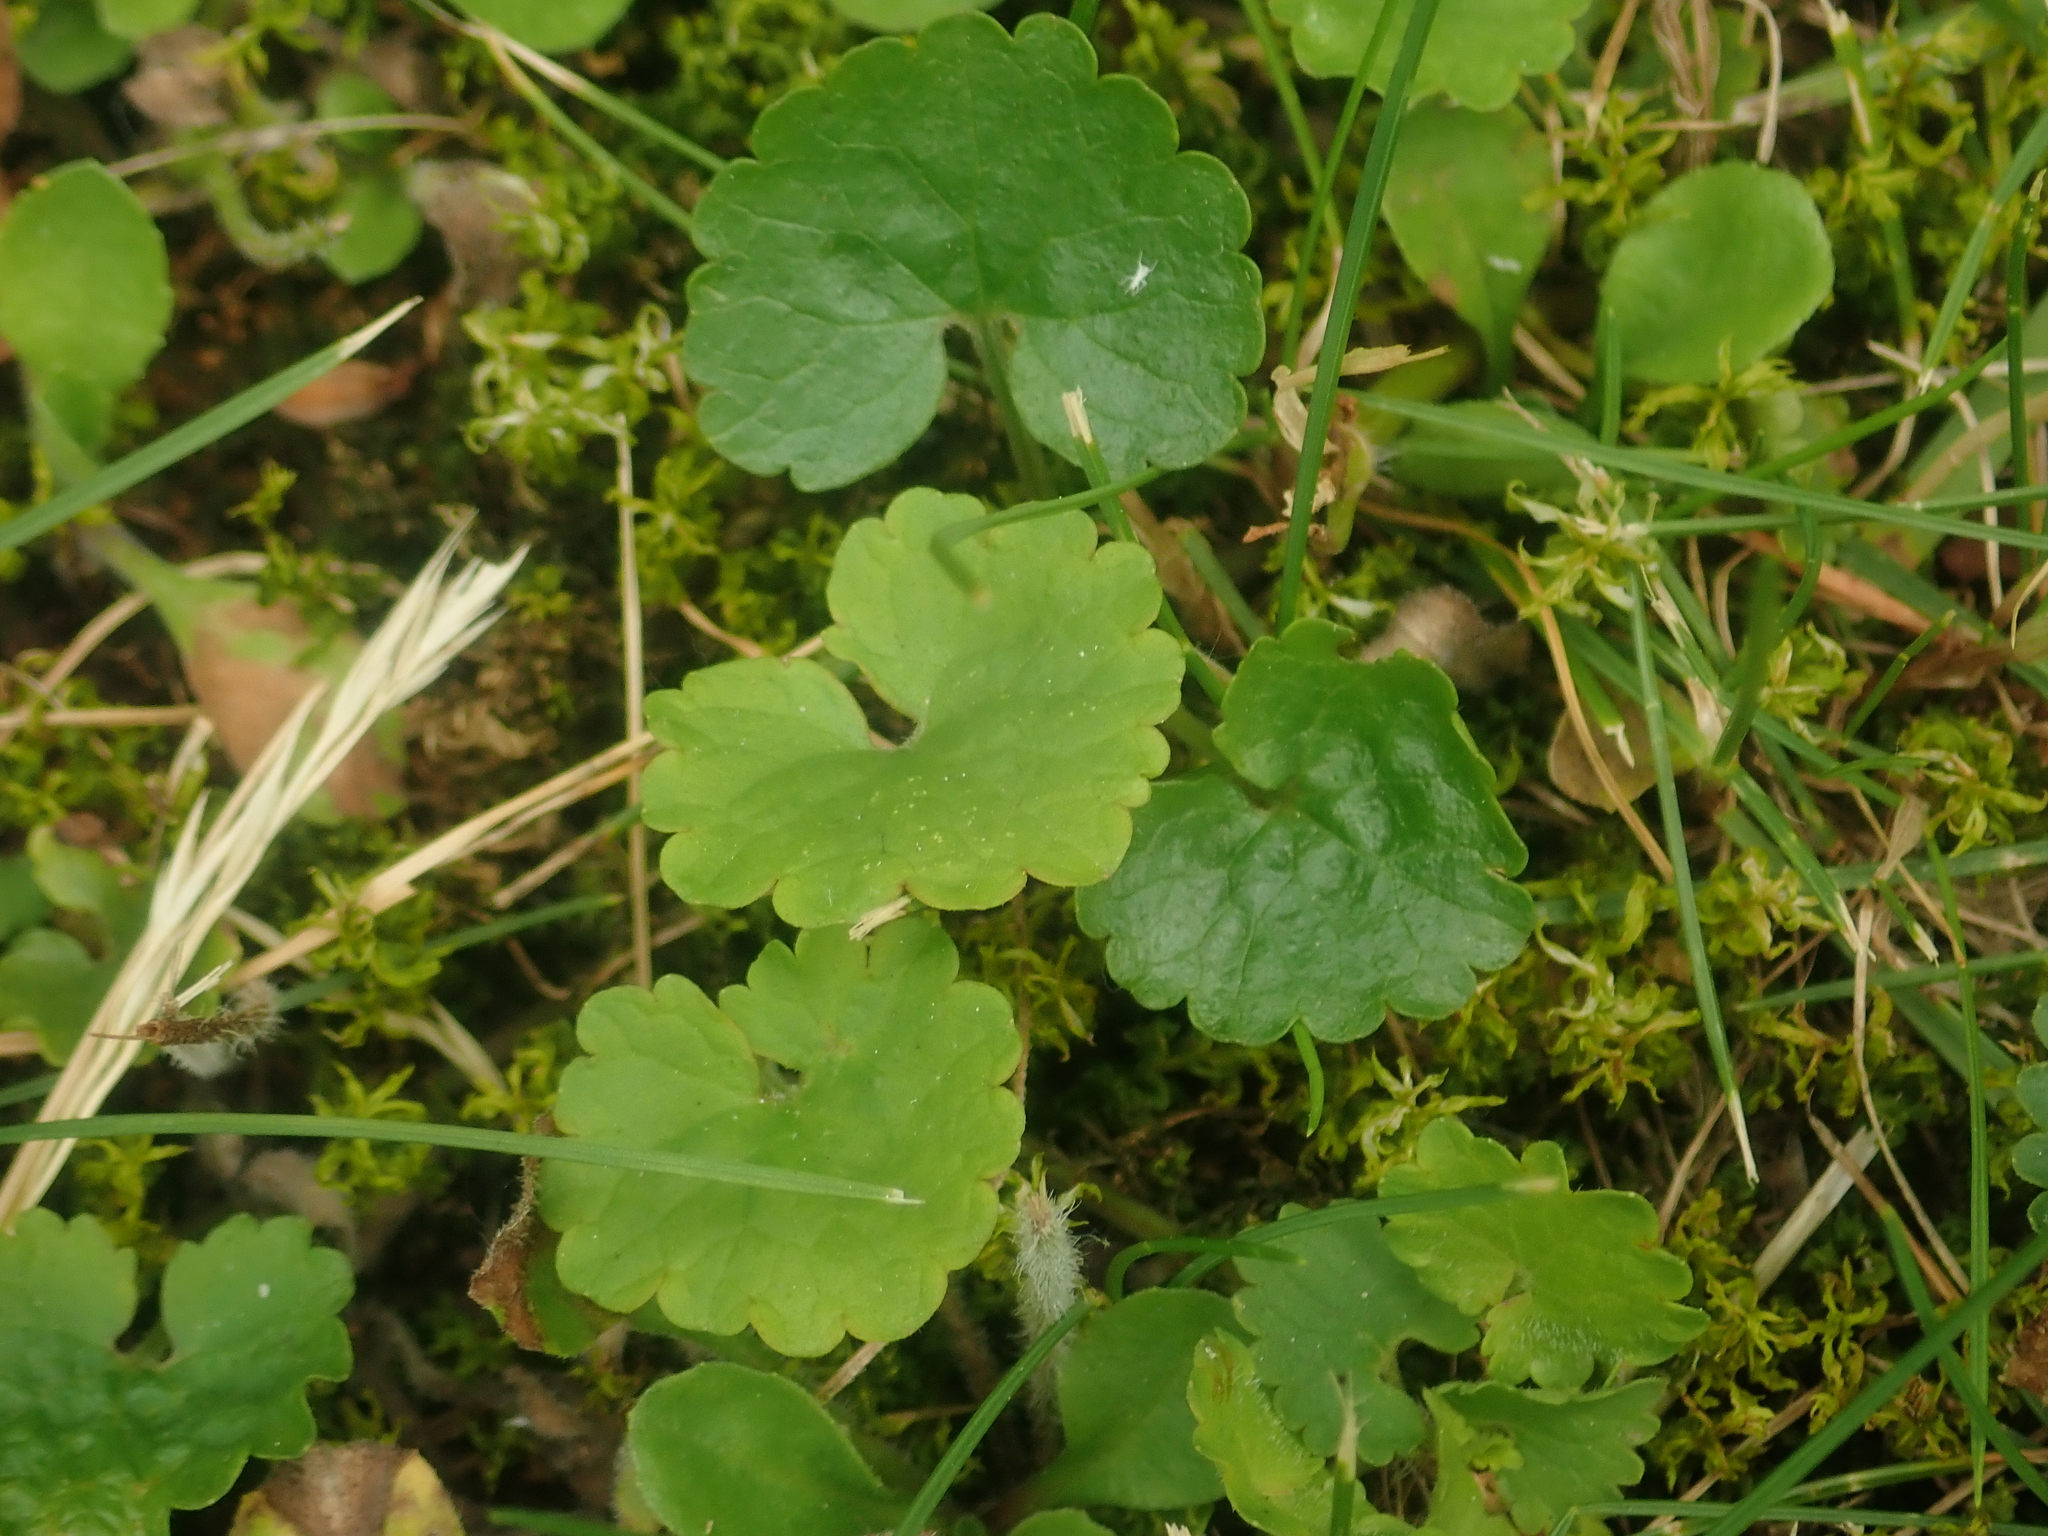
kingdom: Plantae
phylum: Tracheophyta
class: Magnoliopsida
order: Lamiales
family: Lamiaceae
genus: Glechoma
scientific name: Glechoma hederacea
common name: Ground ivy
